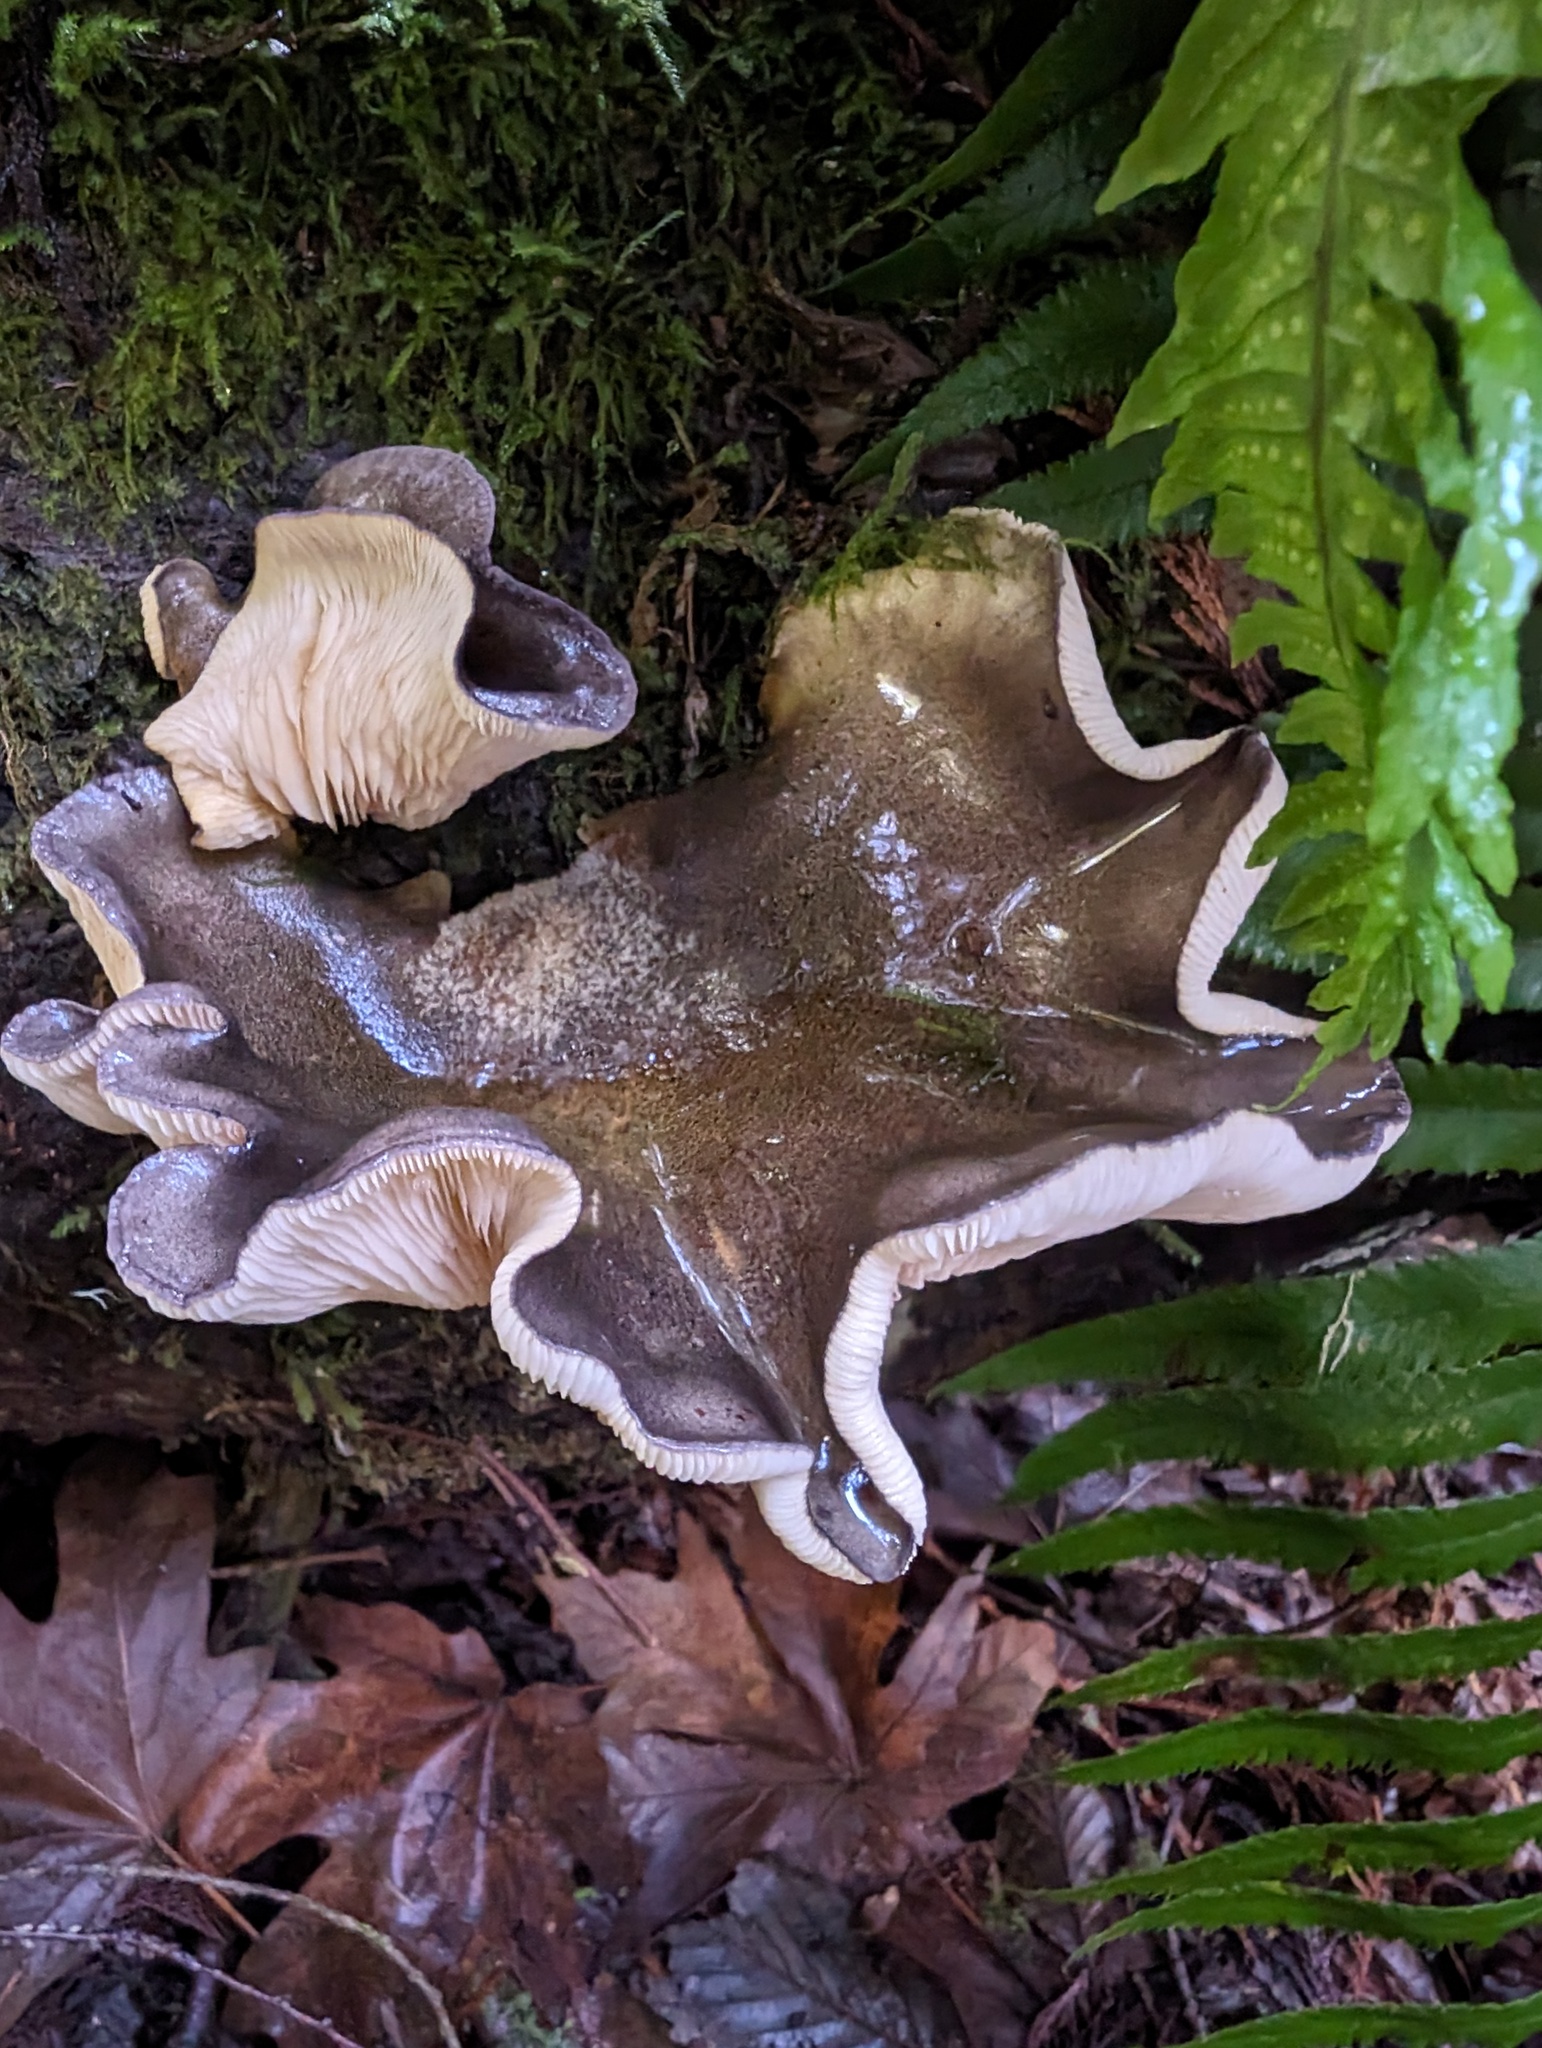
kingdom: Fungi
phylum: Basidiomycota
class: Agaricomycetes
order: Agaricales
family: Sarcomyxaceae
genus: Sarcomyxa
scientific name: Sarcomyxa serotina
